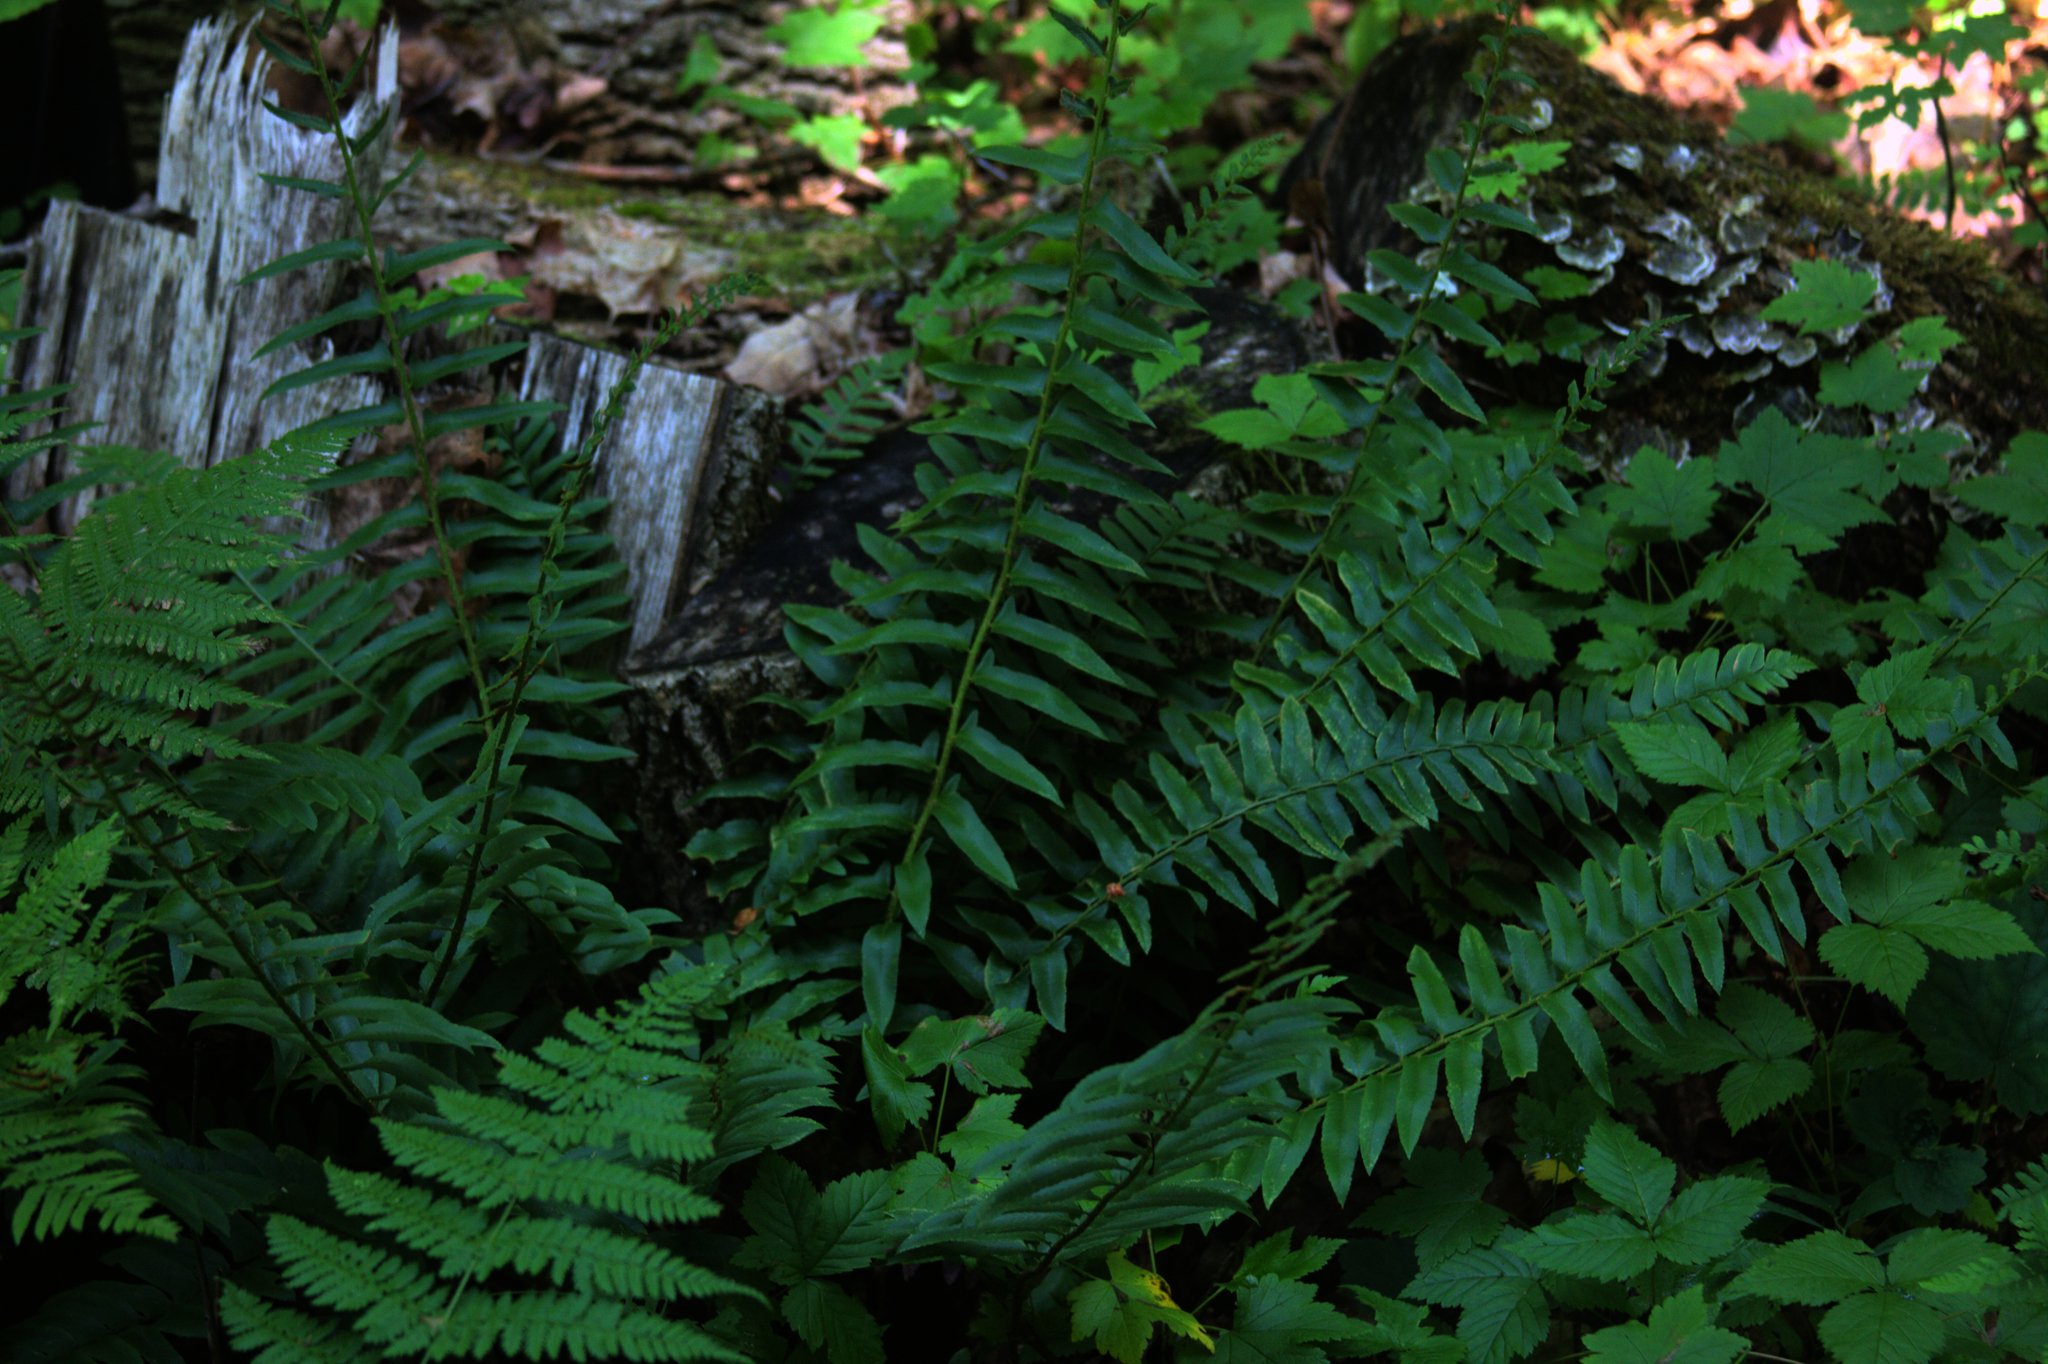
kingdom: Plantae
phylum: Tracheophyta
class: Polypodiopsida
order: Polypodiales
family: Dryopteridaceae
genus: Polystichum
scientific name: Polystichum acrostichoides
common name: Christmas fern
